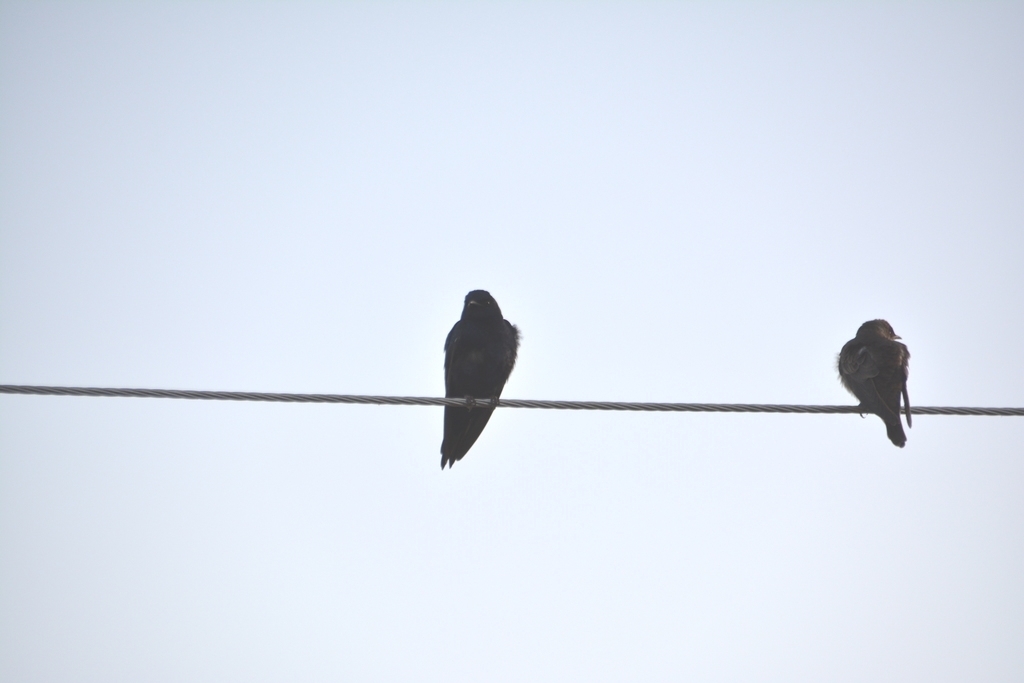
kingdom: Animalia
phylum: Chordata
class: Aves
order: Passeriformes
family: Hirundinidae
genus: Progne
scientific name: Progne elegans
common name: Southern martin
